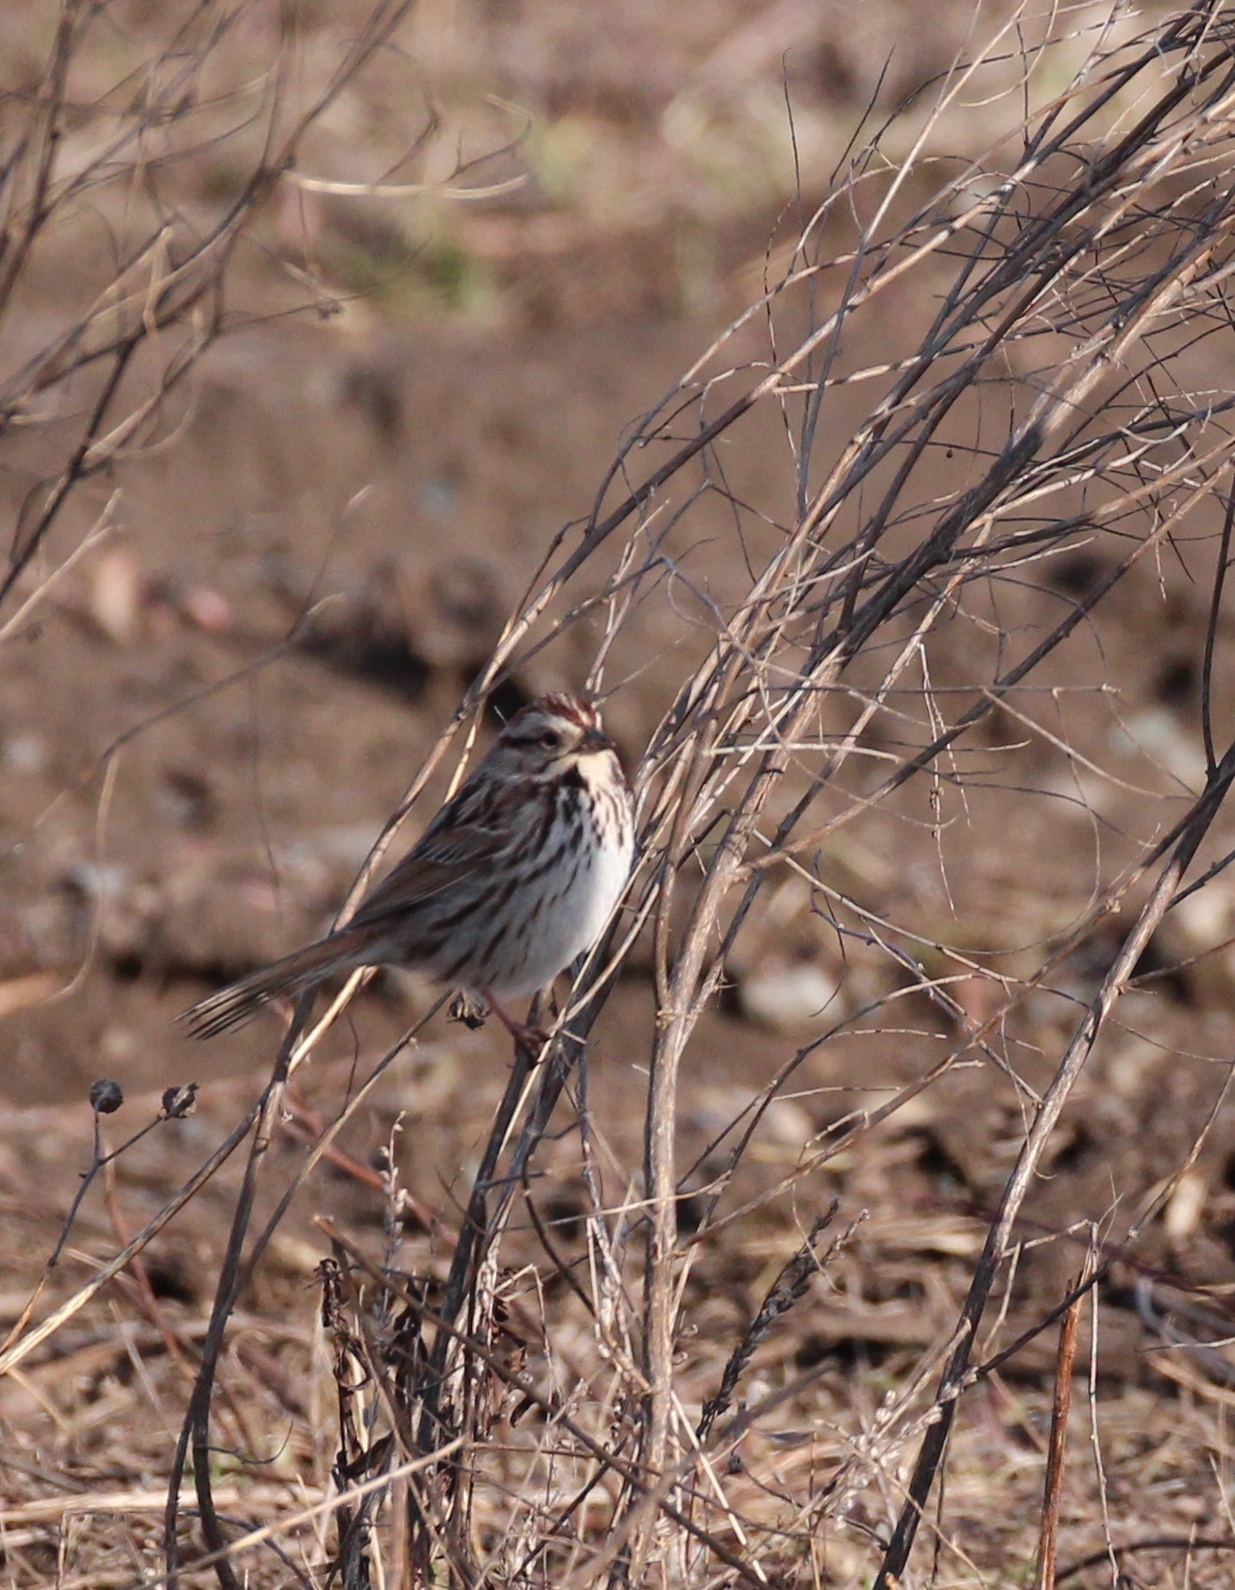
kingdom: Animalia
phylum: Chordata
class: Aves
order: Passeriformes
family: Passerellidae
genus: Melospiza
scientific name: Melospiza melodia
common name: Song sparrow
